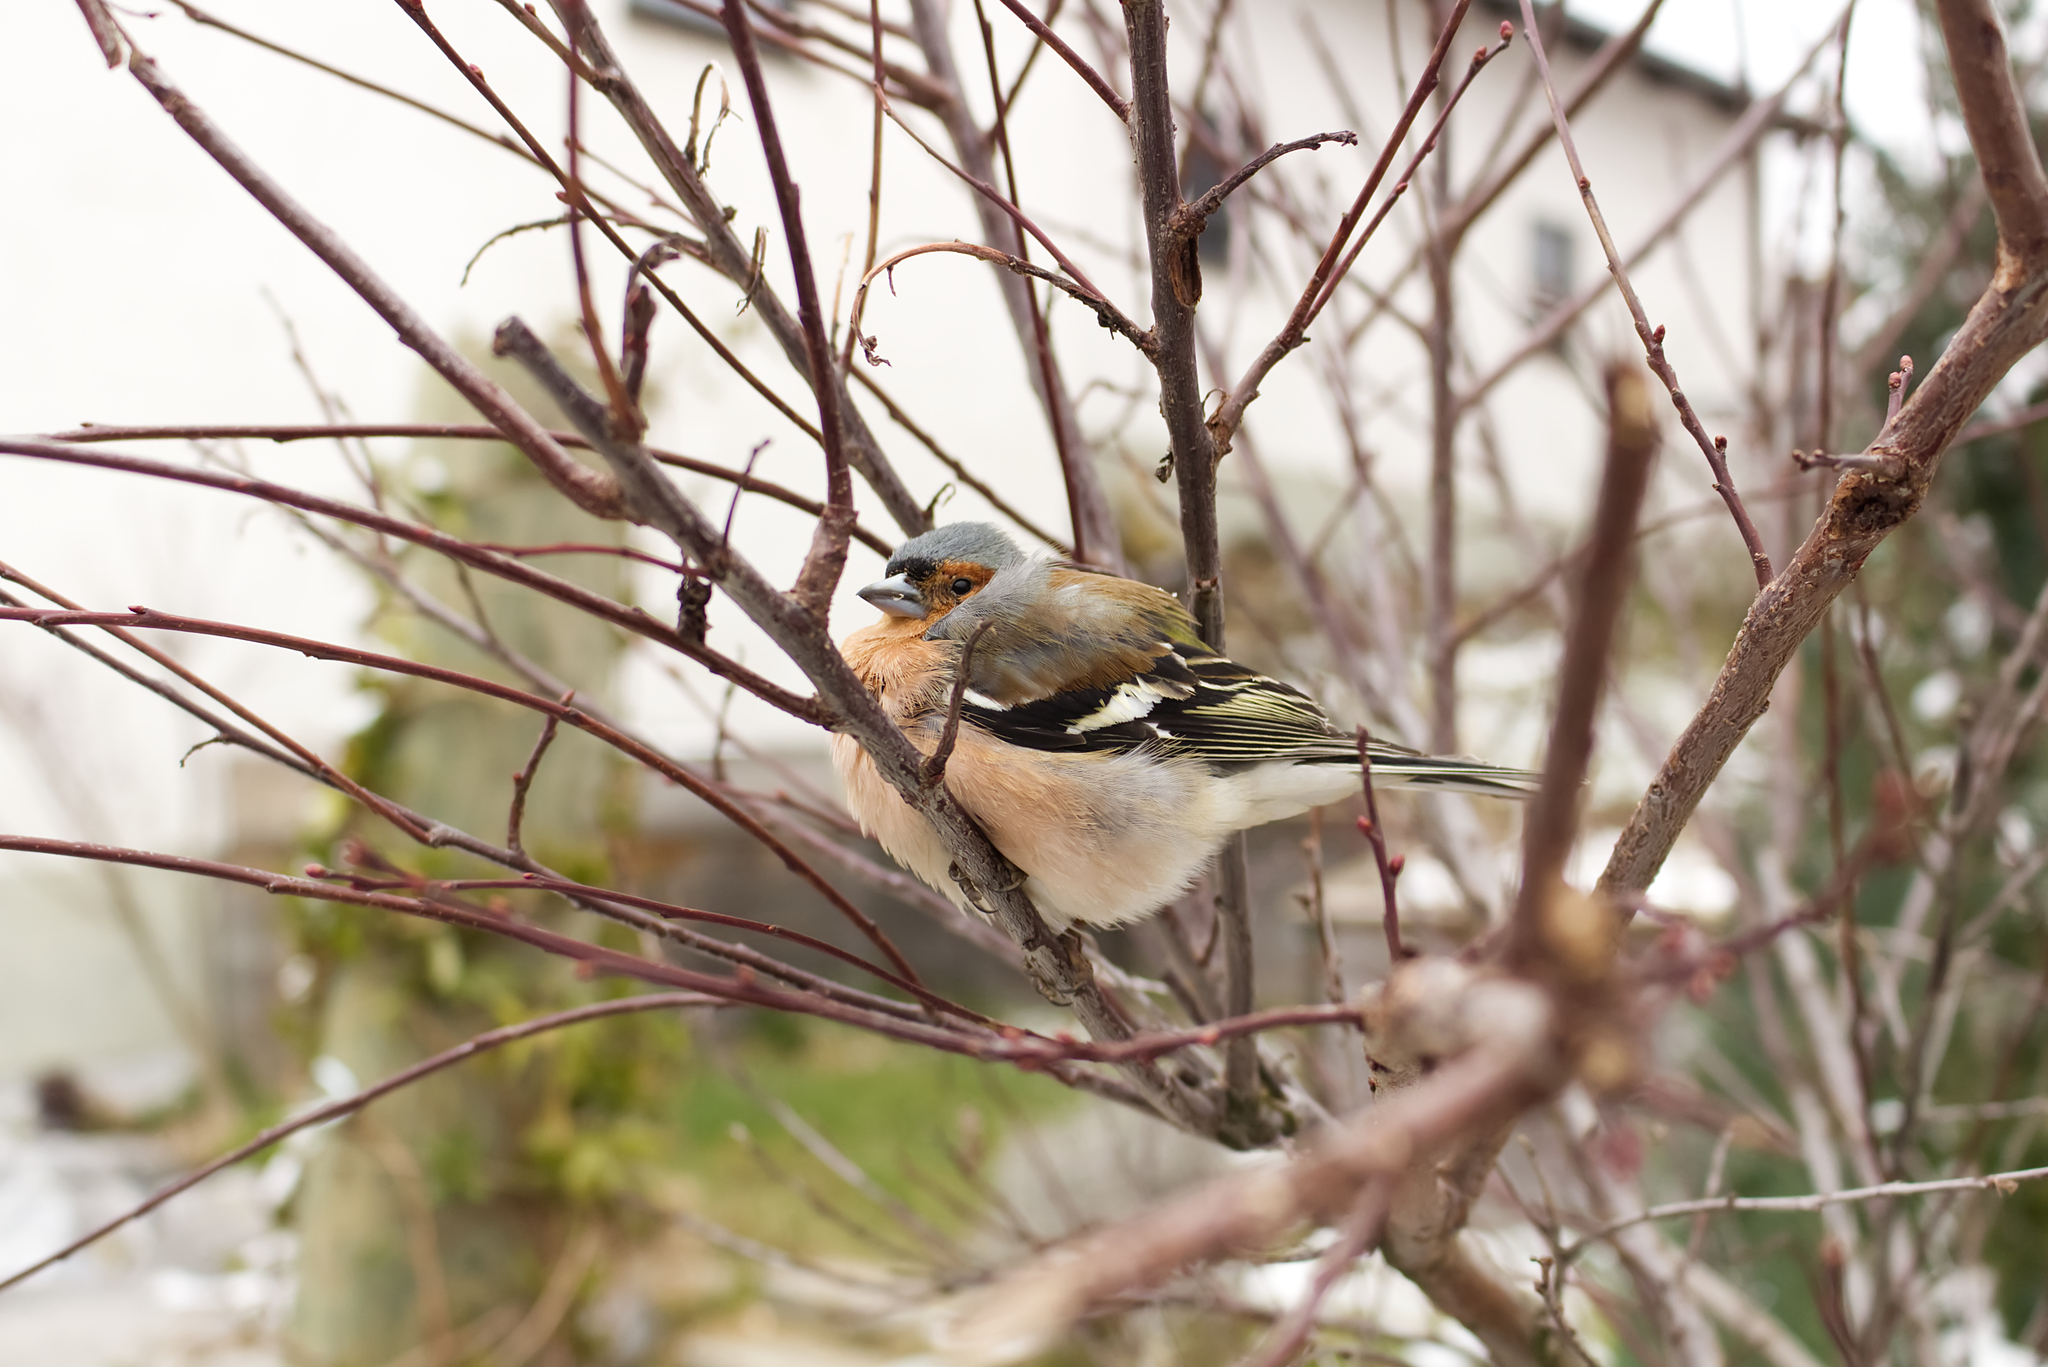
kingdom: Animalia
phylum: Chordata
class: Aves
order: Passeriformes
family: Fringillidae
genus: Fringilla
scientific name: Fringilla coelebs
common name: Common chaffinch
